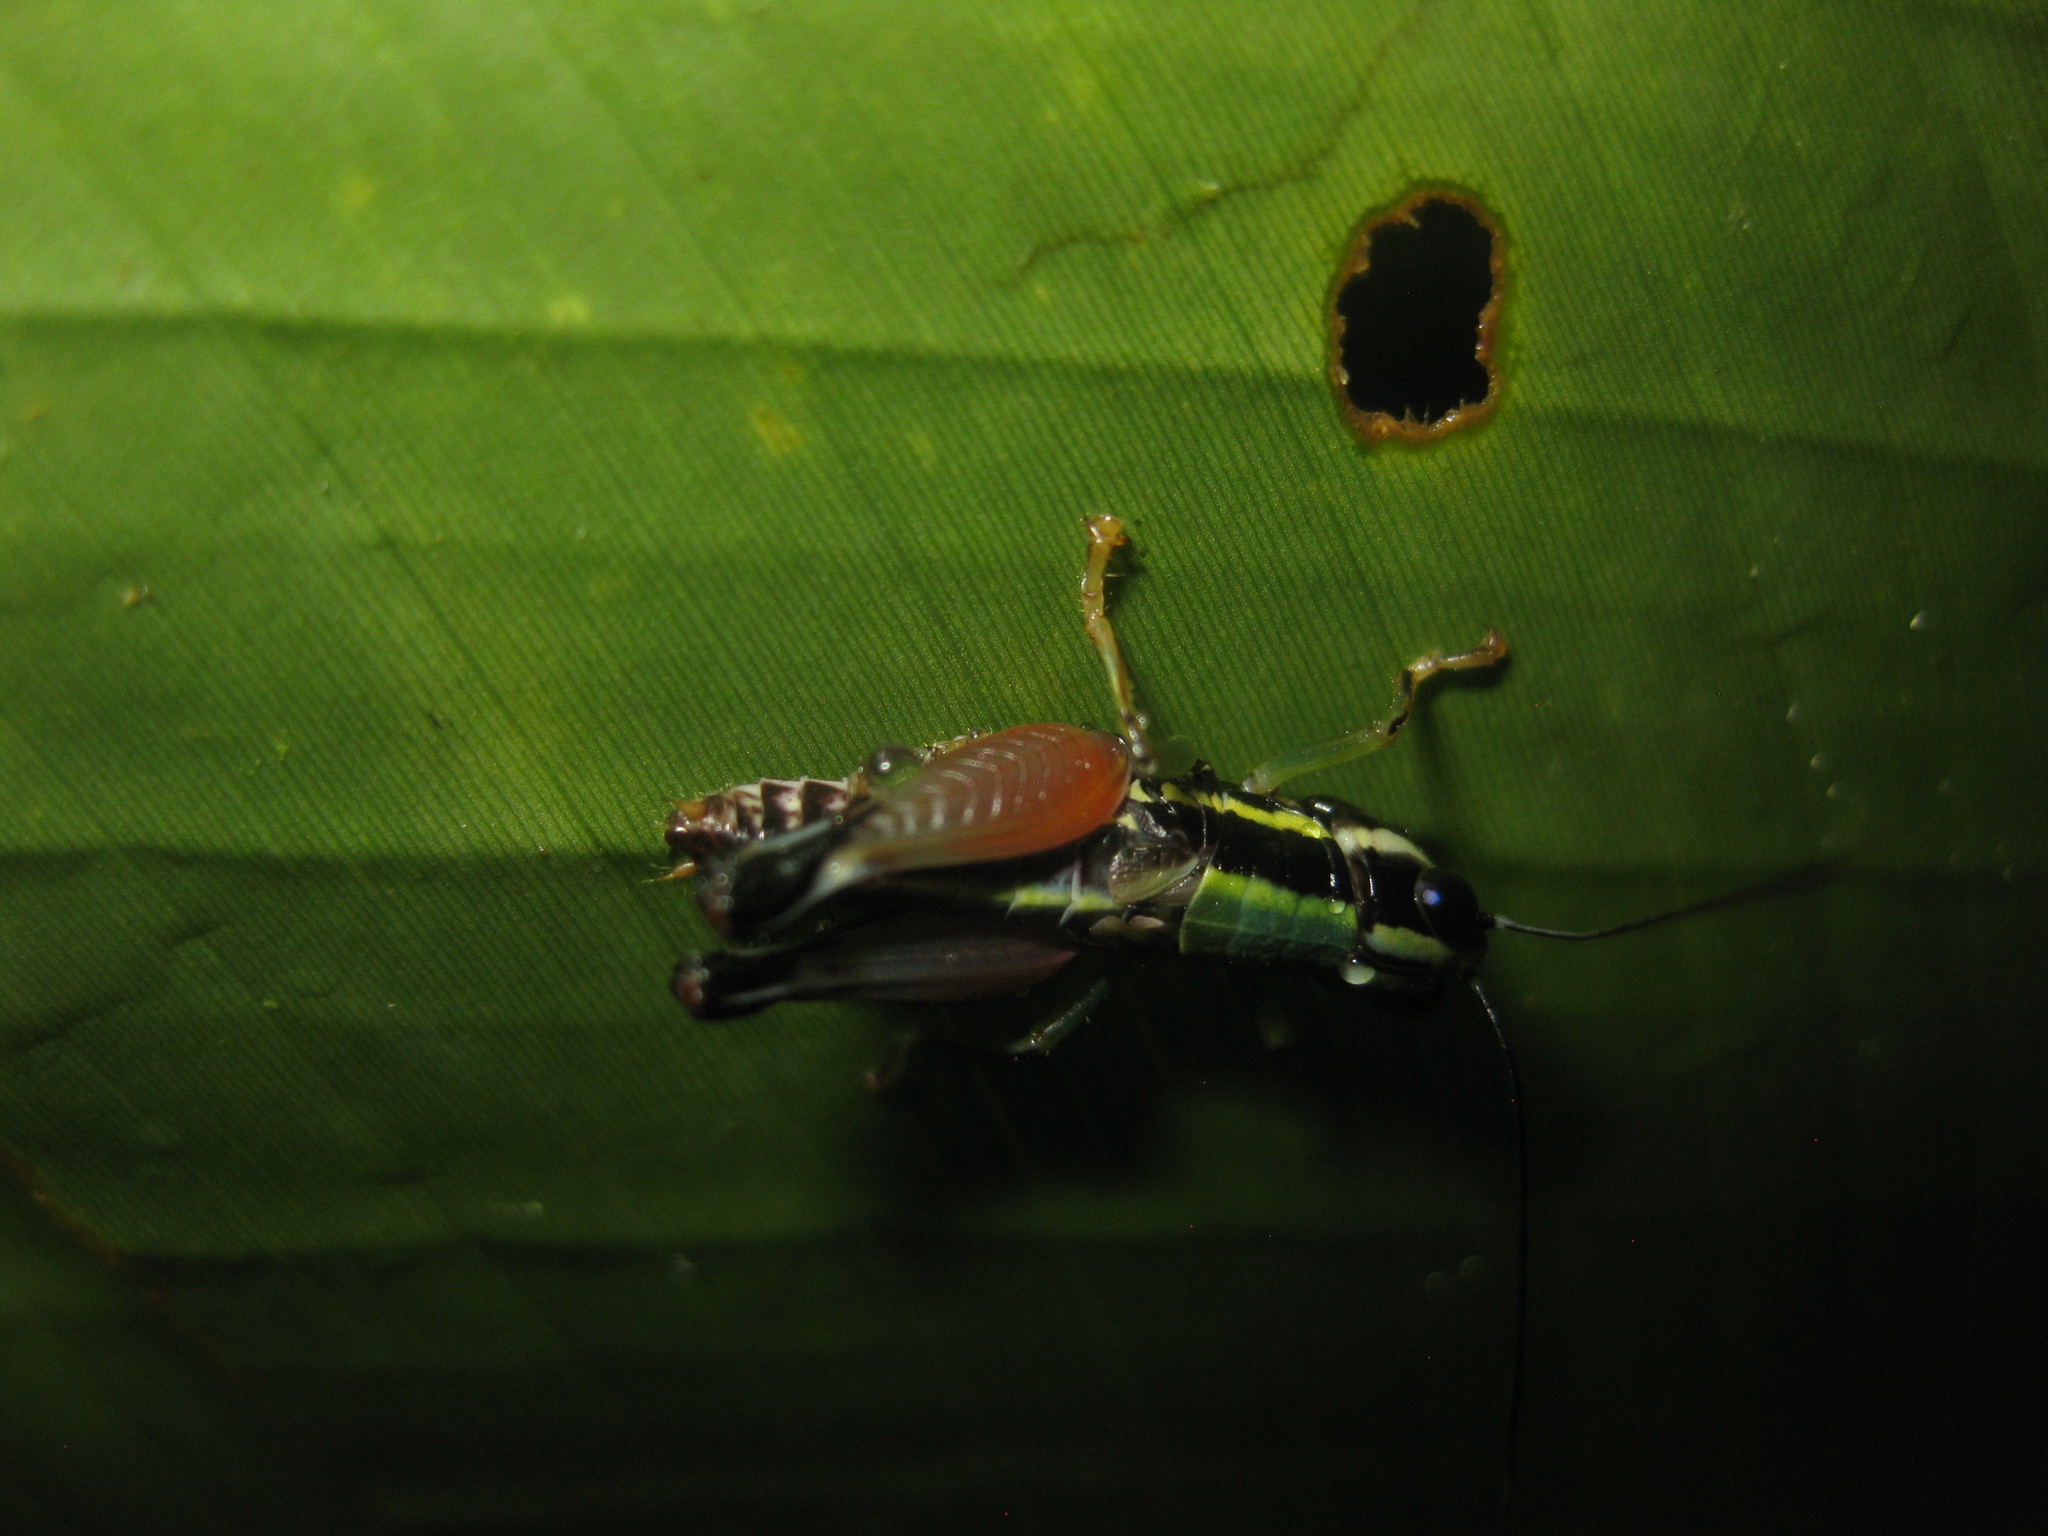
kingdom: Animalia
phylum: Arthropoda
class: Insecta
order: Orthoptera
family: Acrididae
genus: Nadiacris
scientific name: Nadiacris nitidula
